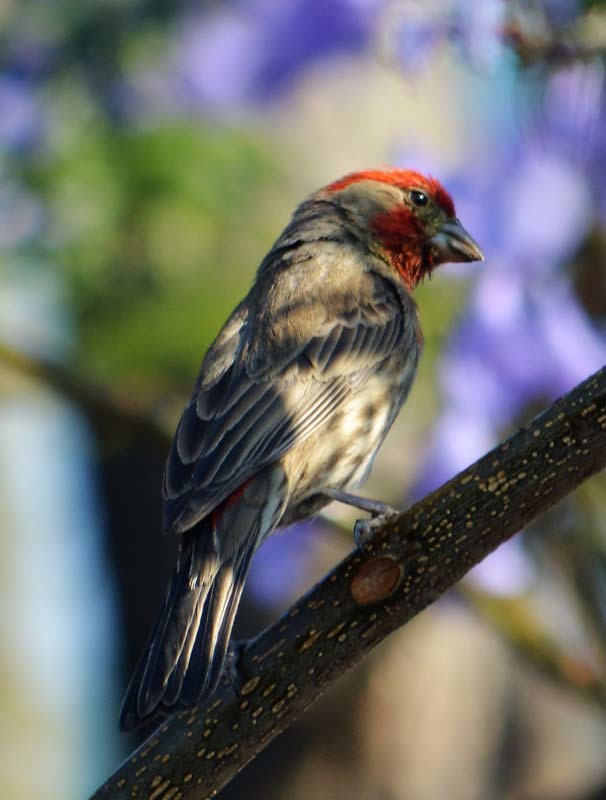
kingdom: Animalia
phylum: Chordata
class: Aves
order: Passeriformes
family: Fringillidae
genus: Haemorhous
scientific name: Haemorhous mexicanus
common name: House finch
